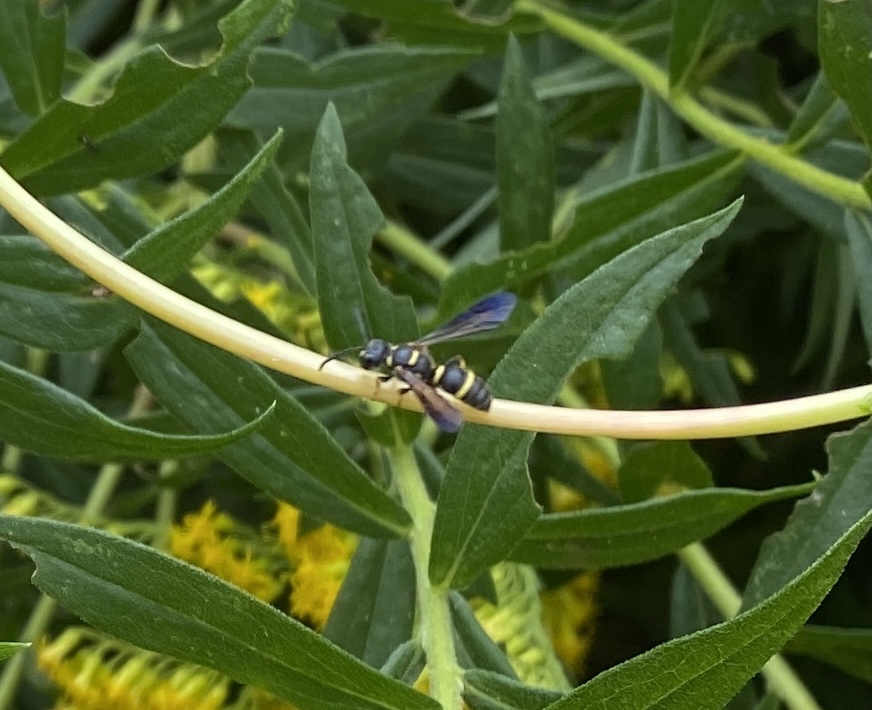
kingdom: Animalia
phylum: Arthropoda
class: Insecta
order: Hymenoptera
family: Crabronidae
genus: Cerceris
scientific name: Cerceris insolita
